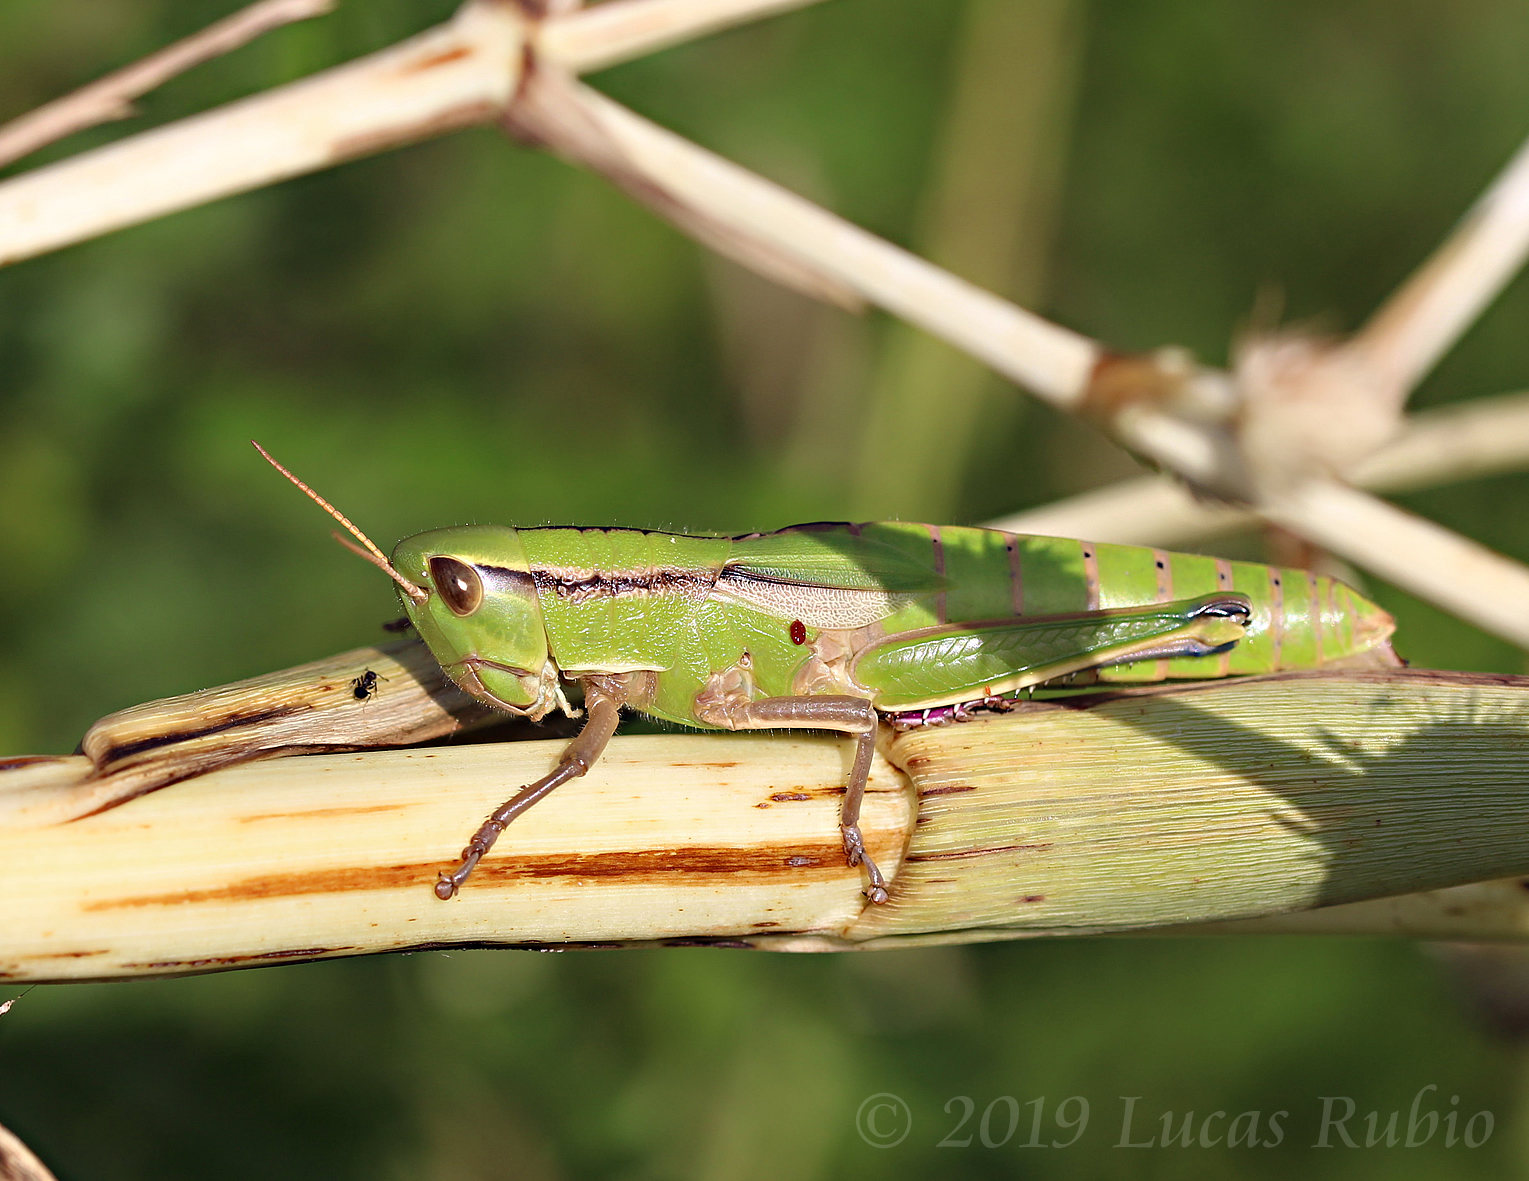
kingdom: Animalia
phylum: Arthropoda
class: Insecta
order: Orthoptera
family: Acrididae
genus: Aleuas
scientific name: Aleuas vitticollis
